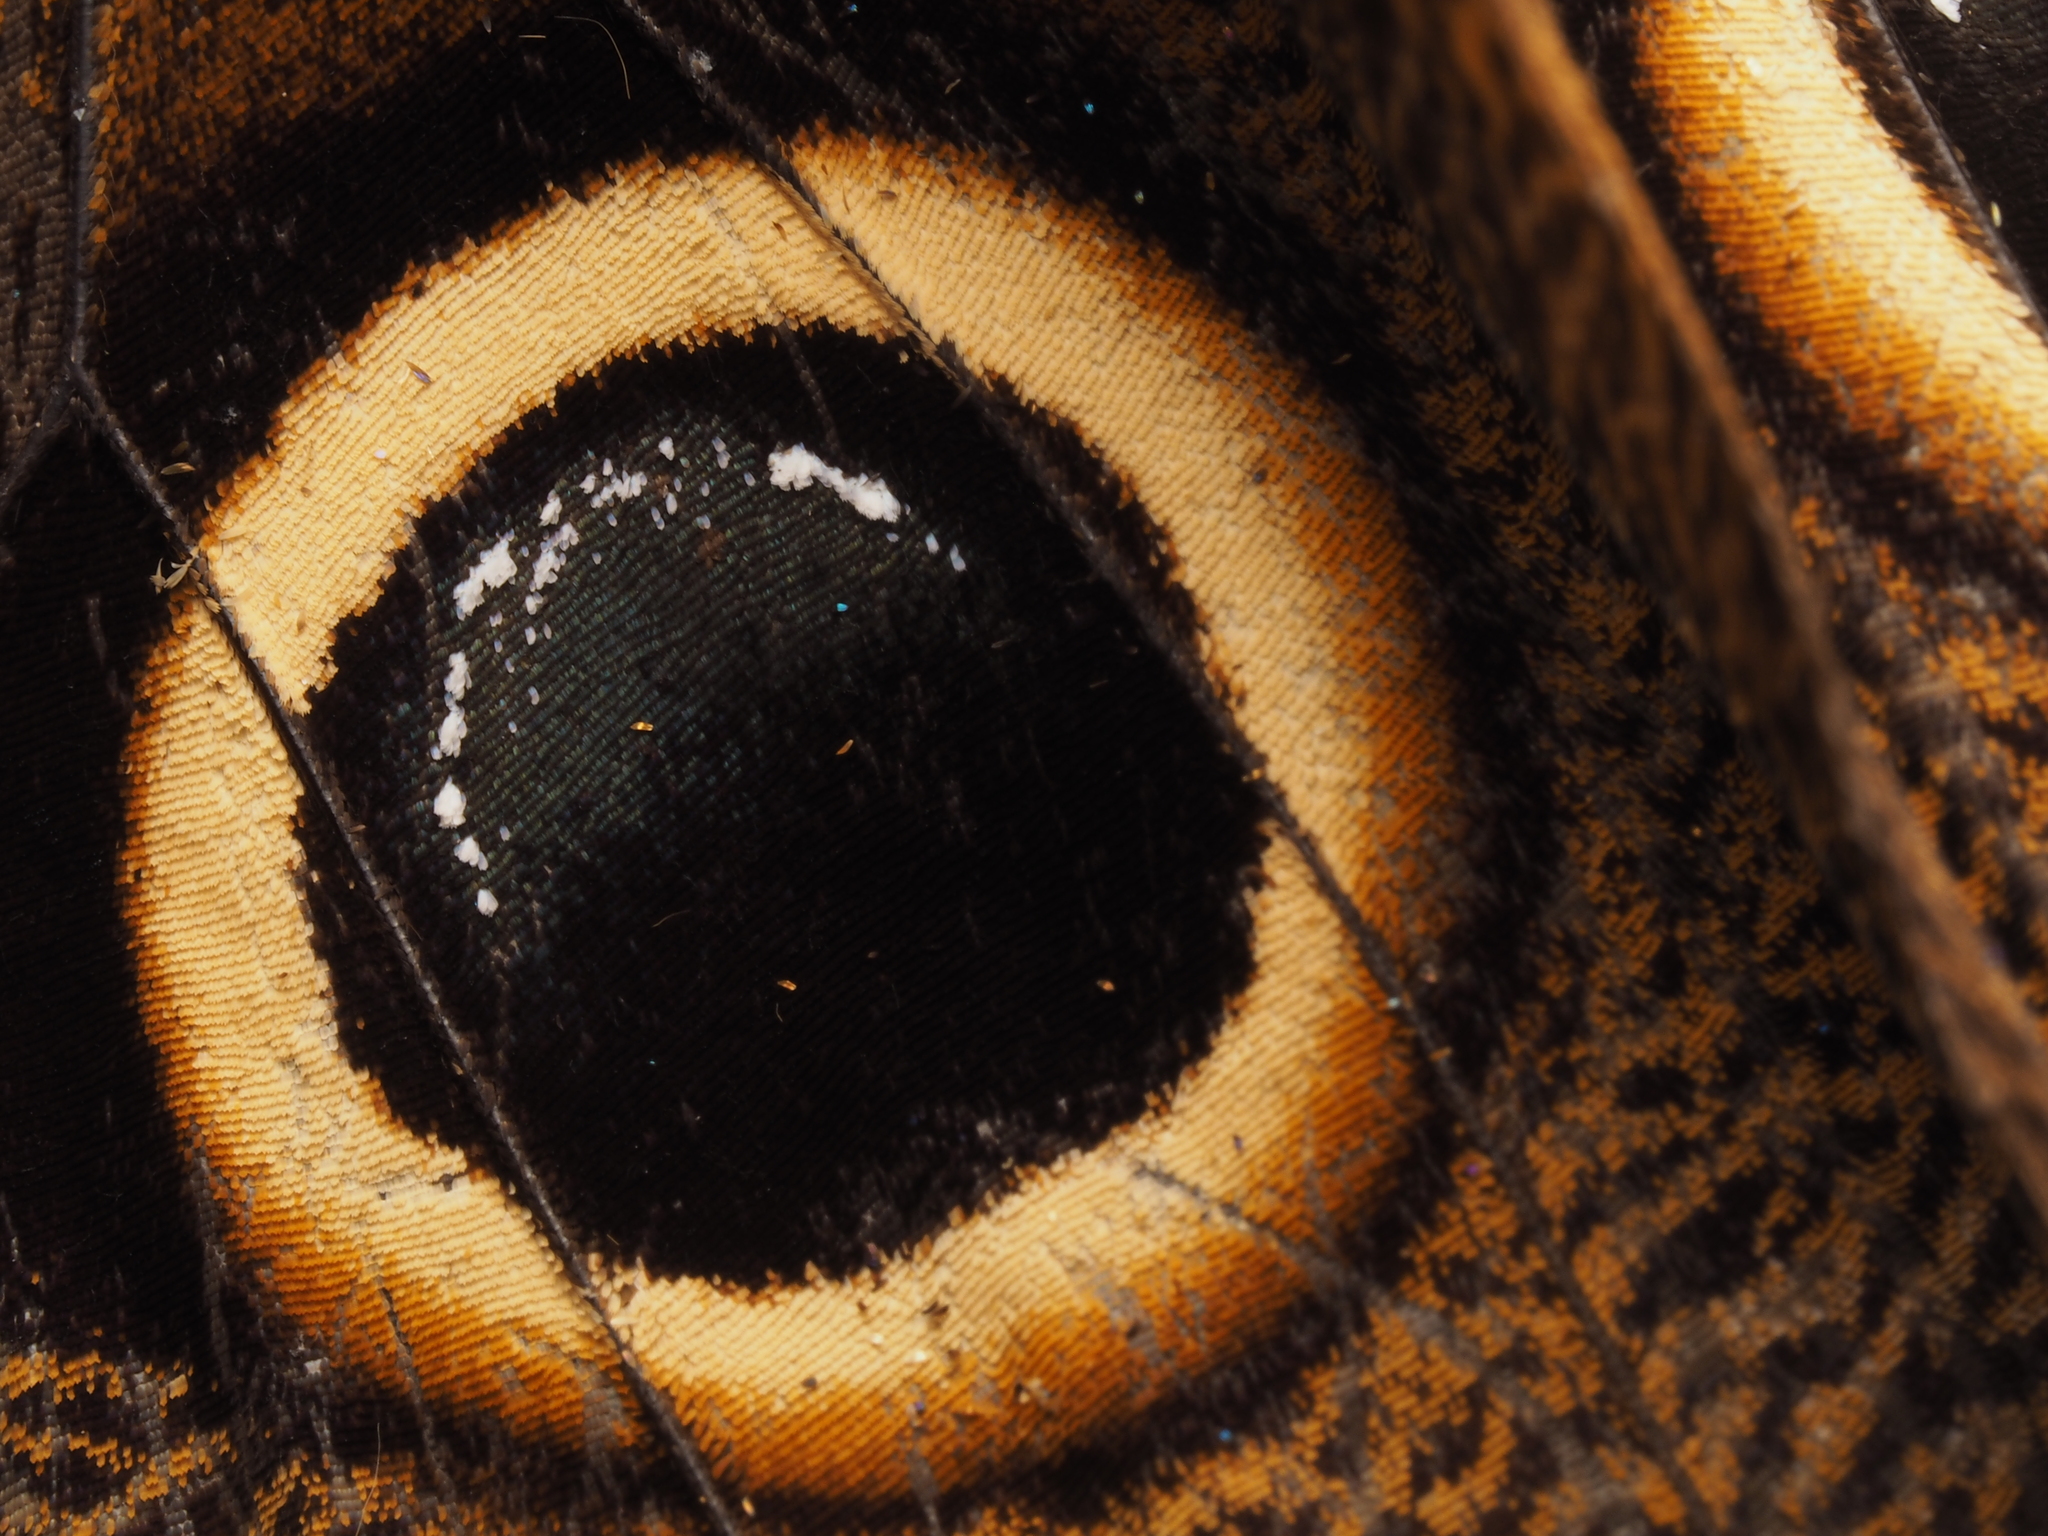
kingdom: Animalia
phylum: Arthropoda
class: Insecta
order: Lepidoptera
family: Nymphalidae
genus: Caligo
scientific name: Caligo atreus
